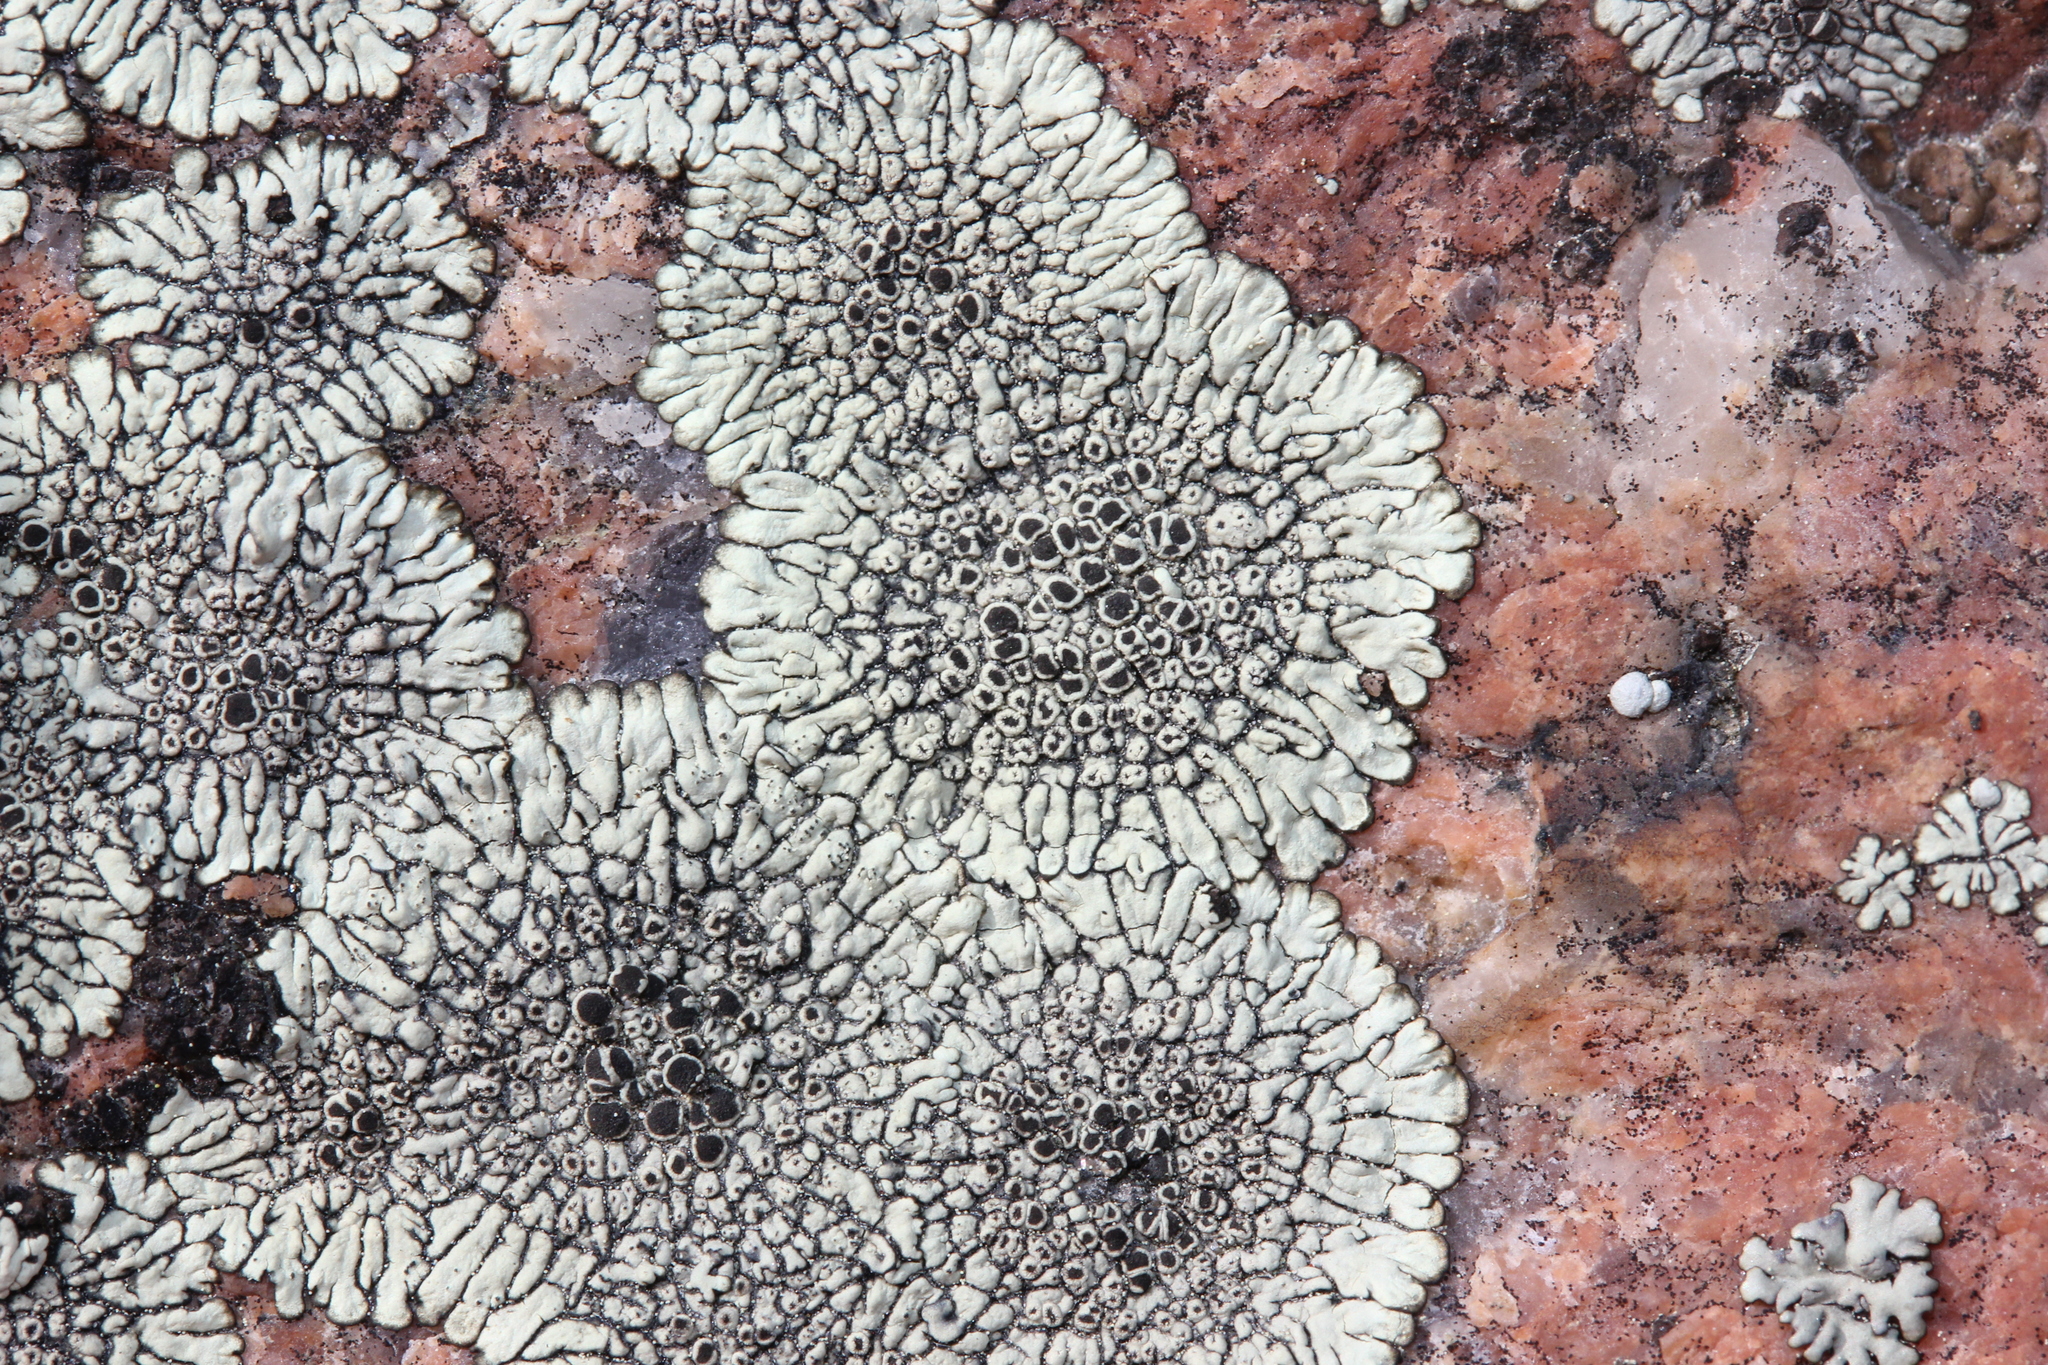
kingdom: Fungi
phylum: Ascomycota
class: Lecanoromycetes
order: Caliciales
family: Caliciaceae
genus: Dimelaena
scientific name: Dimelaena oreina
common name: Golden moonglow lichen
